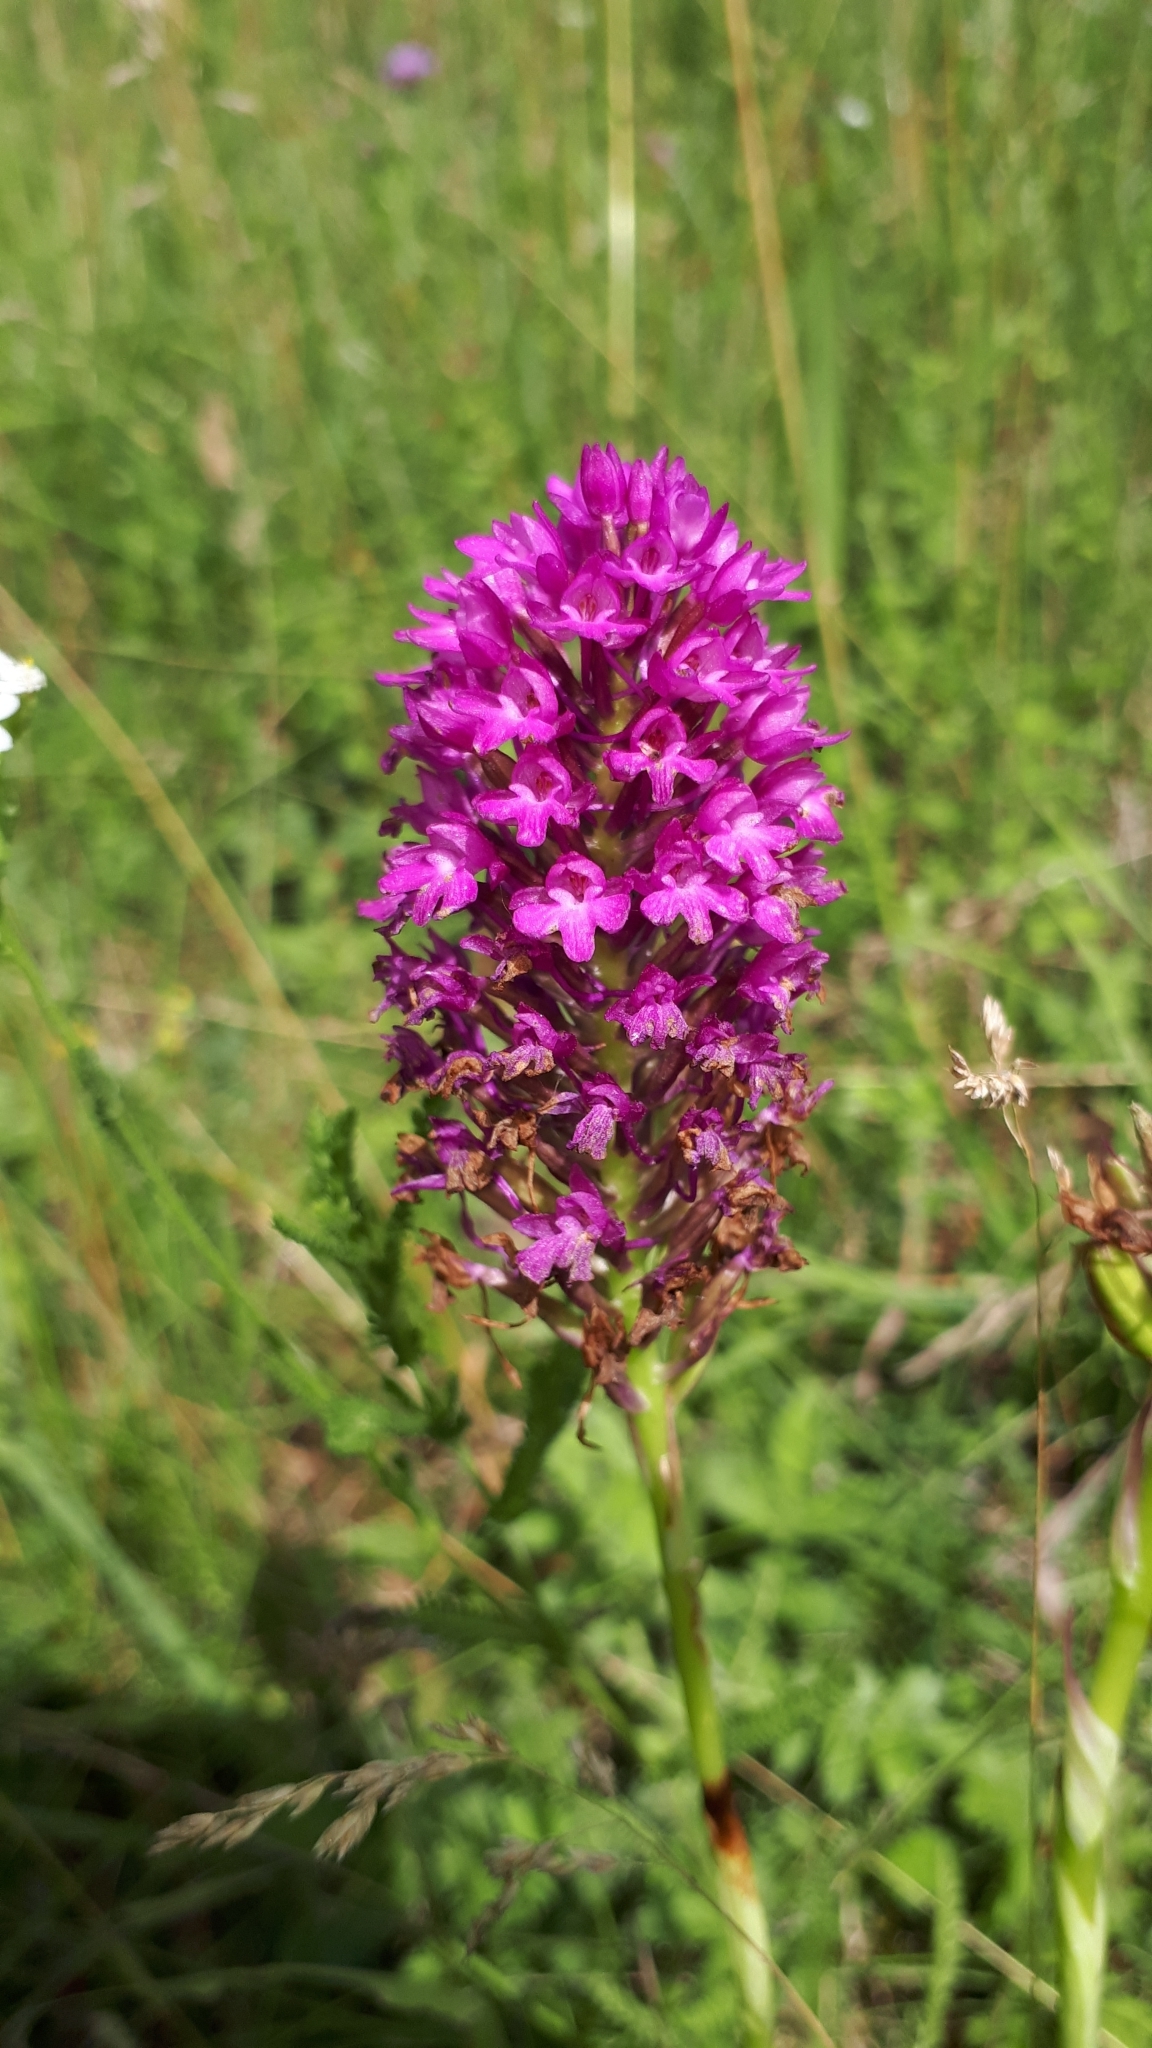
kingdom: Plantae
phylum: Tracheophyta
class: Liliopsida
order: Asparagales
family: Orchidaceae
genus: Anacamptis
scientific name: Anacamptis pyramidalis
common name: Pyramidal orchid
